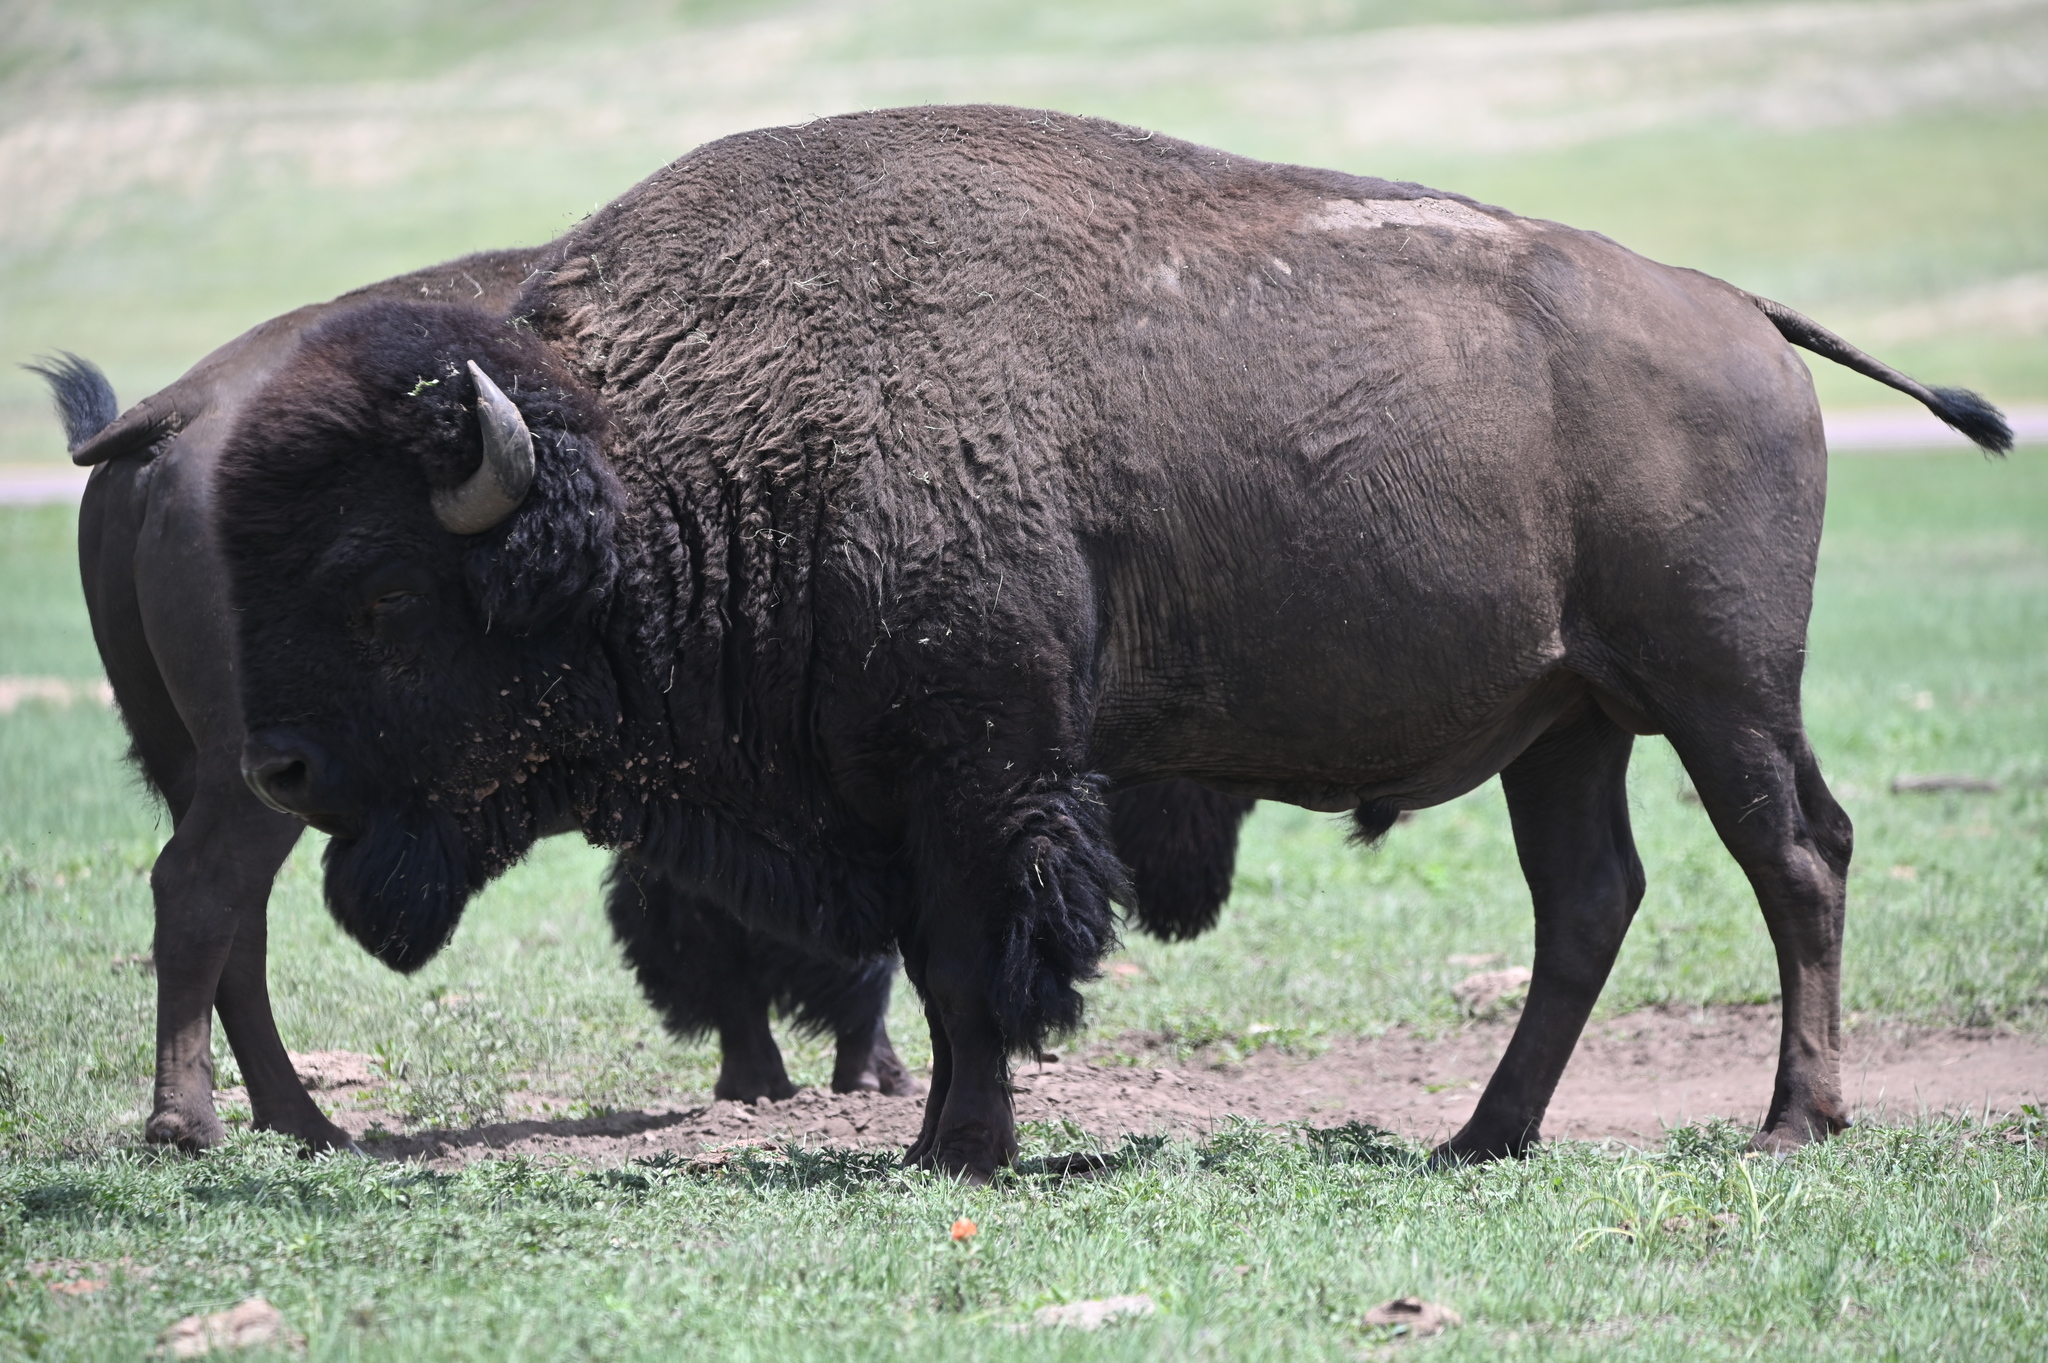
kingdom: Animalia
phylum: Chordata
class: Mammalia
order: Artiodactyla
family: Bovidae
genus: Bison
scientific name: Bison bison
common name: American bison
